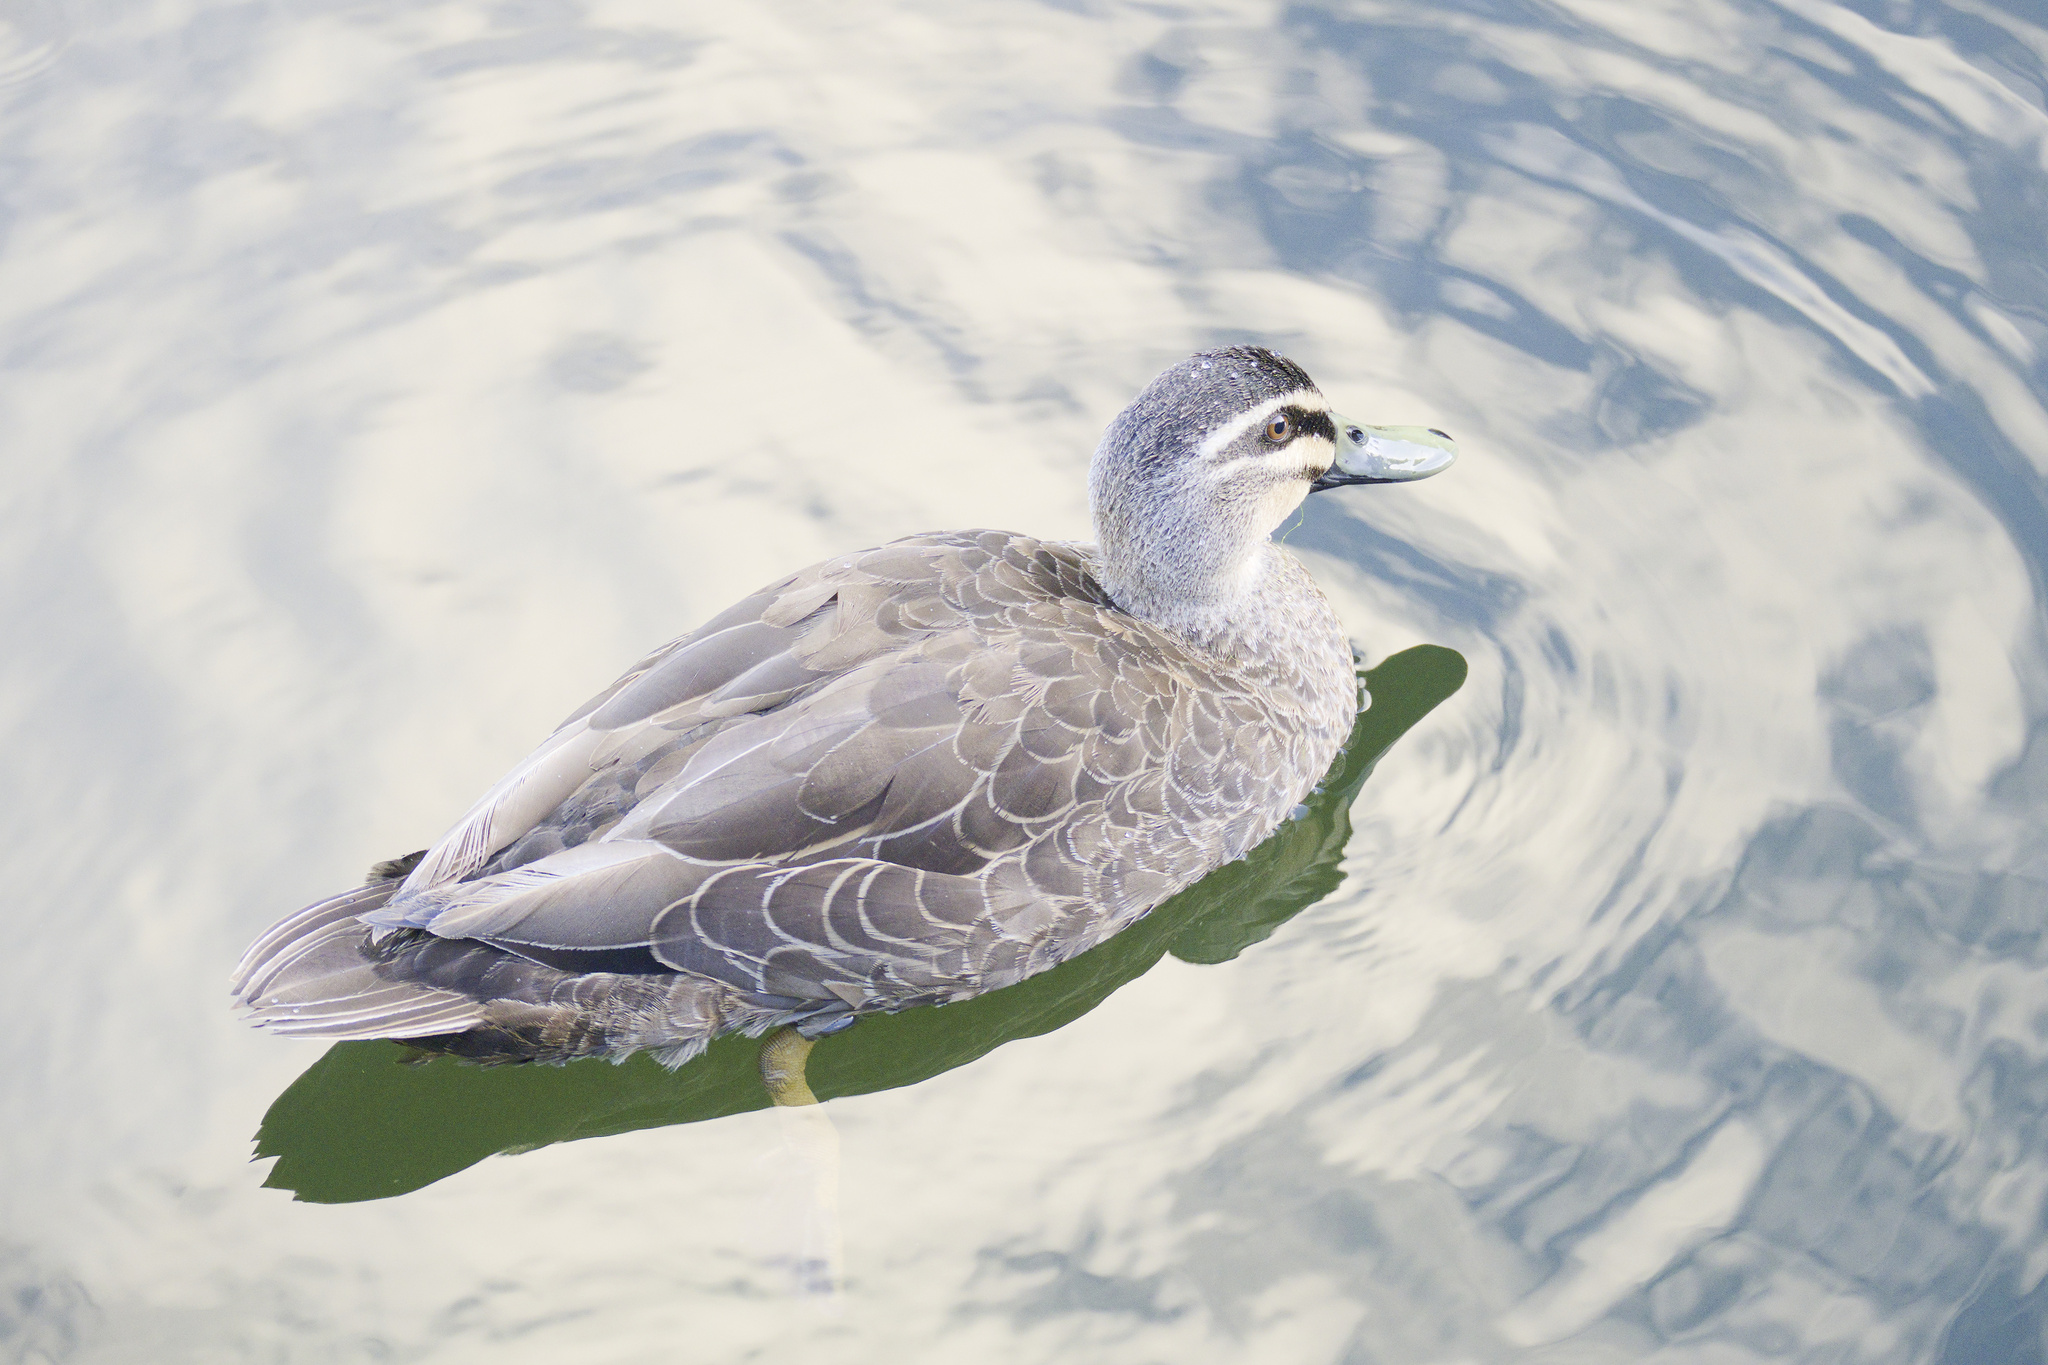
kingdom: Animalia
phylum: Chordata
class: Aves
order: Anseriformes
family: Anatidae
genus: Anas
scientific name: Anas
